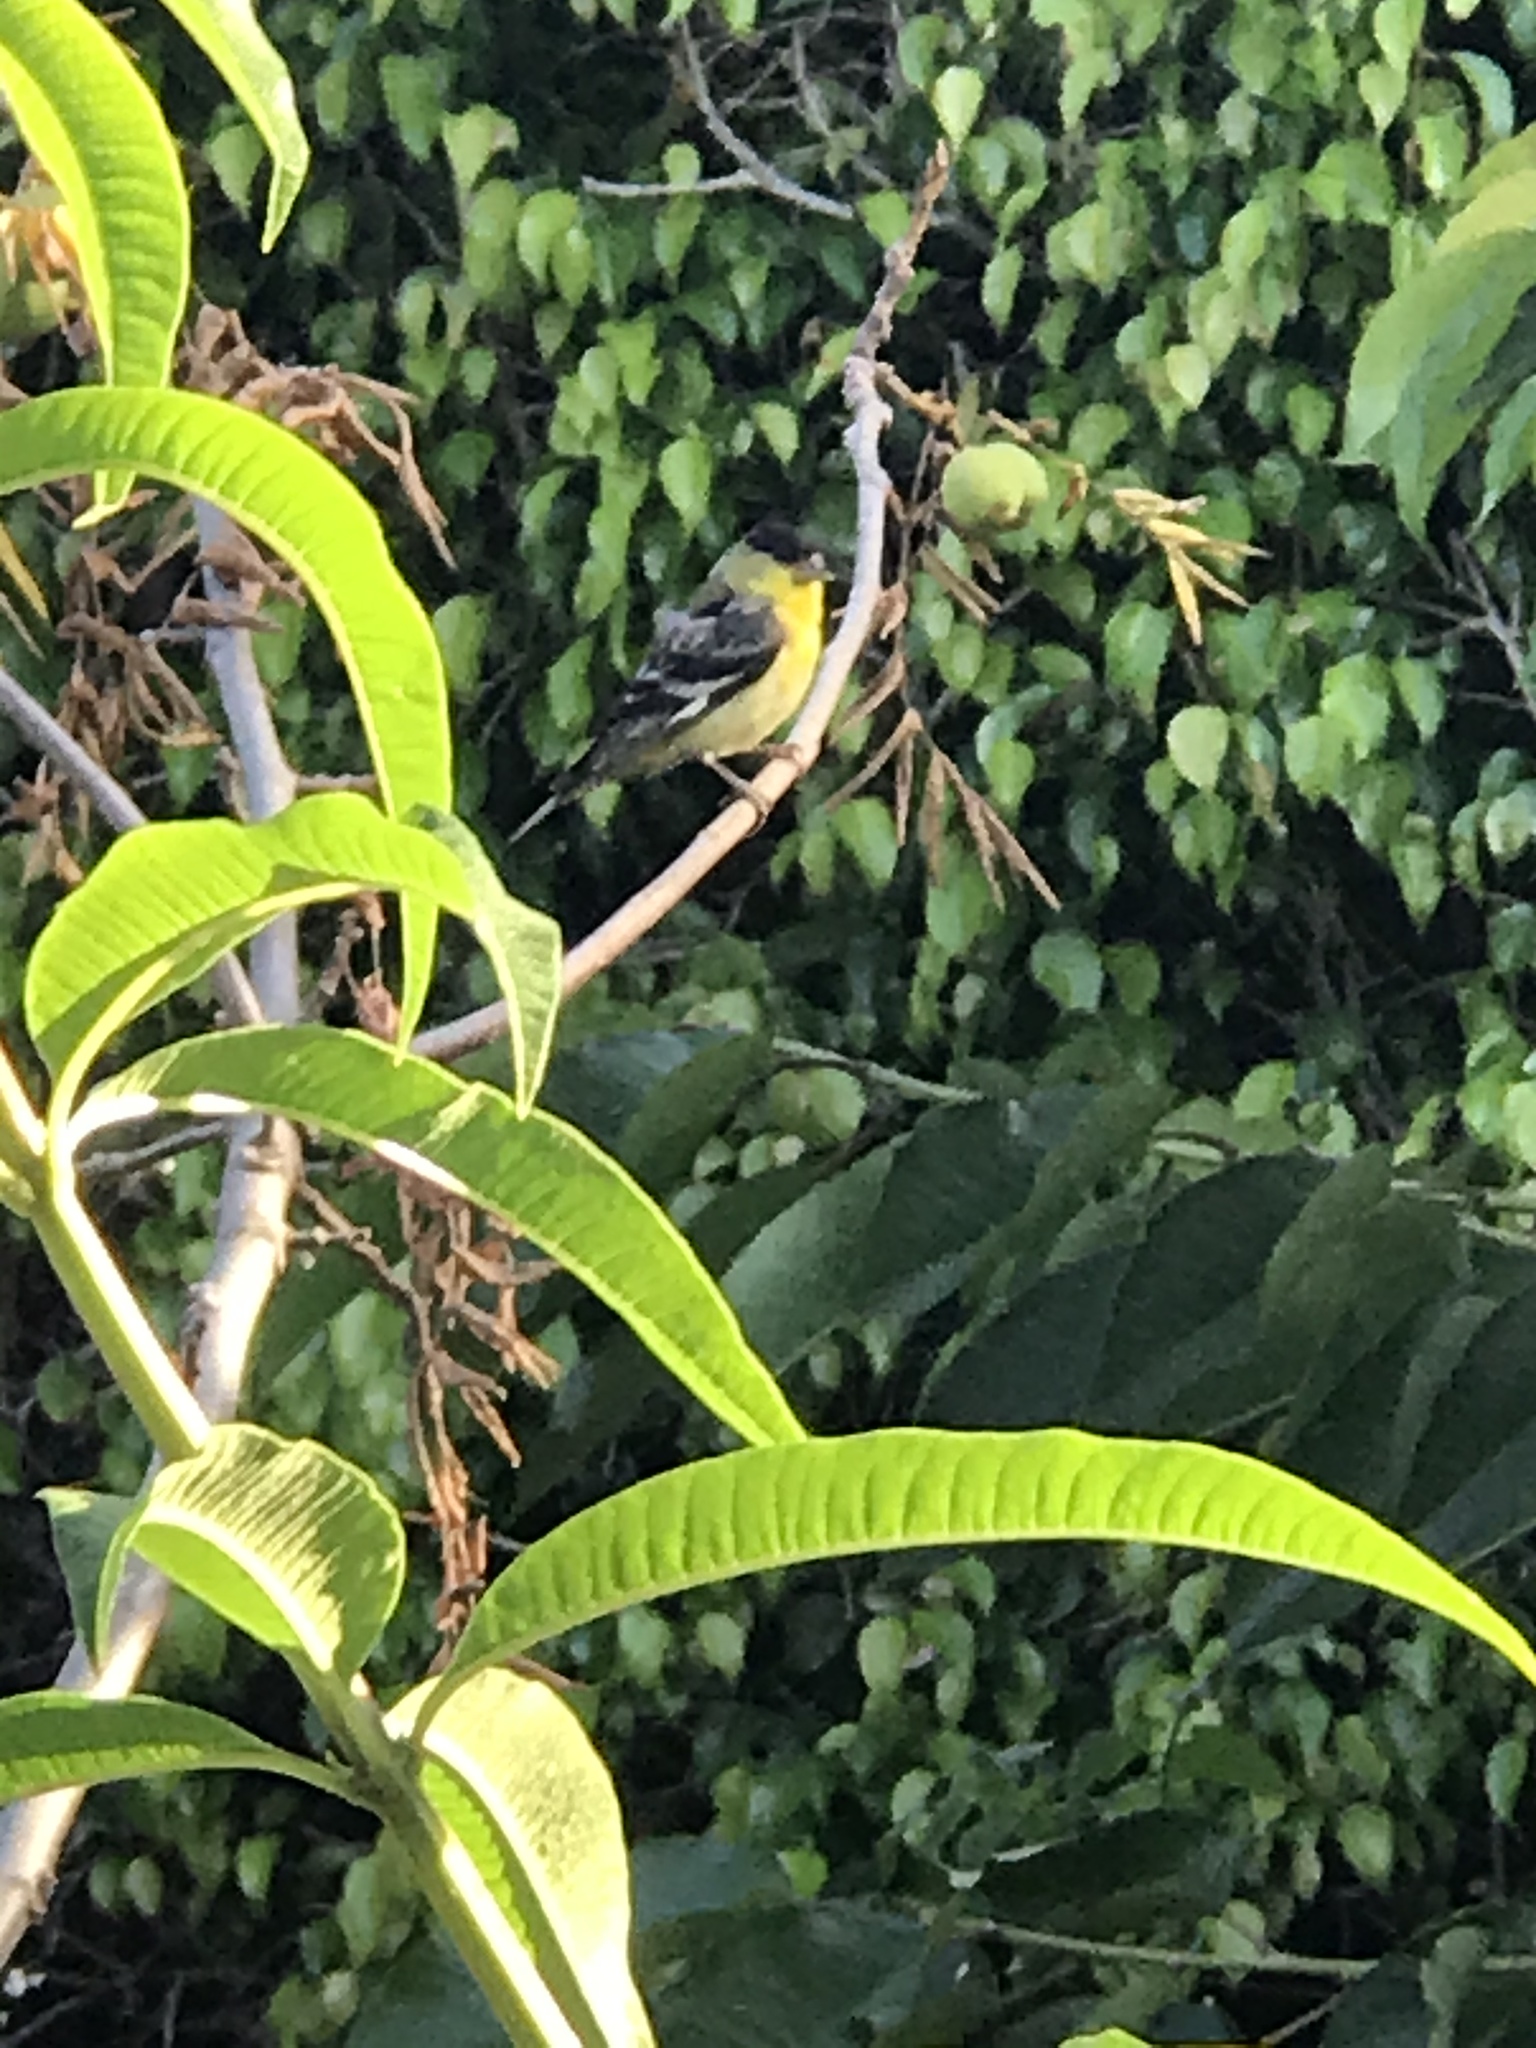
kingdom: Animalia
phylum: Chordata
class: Aves
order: Passeriformes
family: Fringillidae
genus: Spinus
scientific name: Spinus psaltria
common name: Lesser goldfinch
